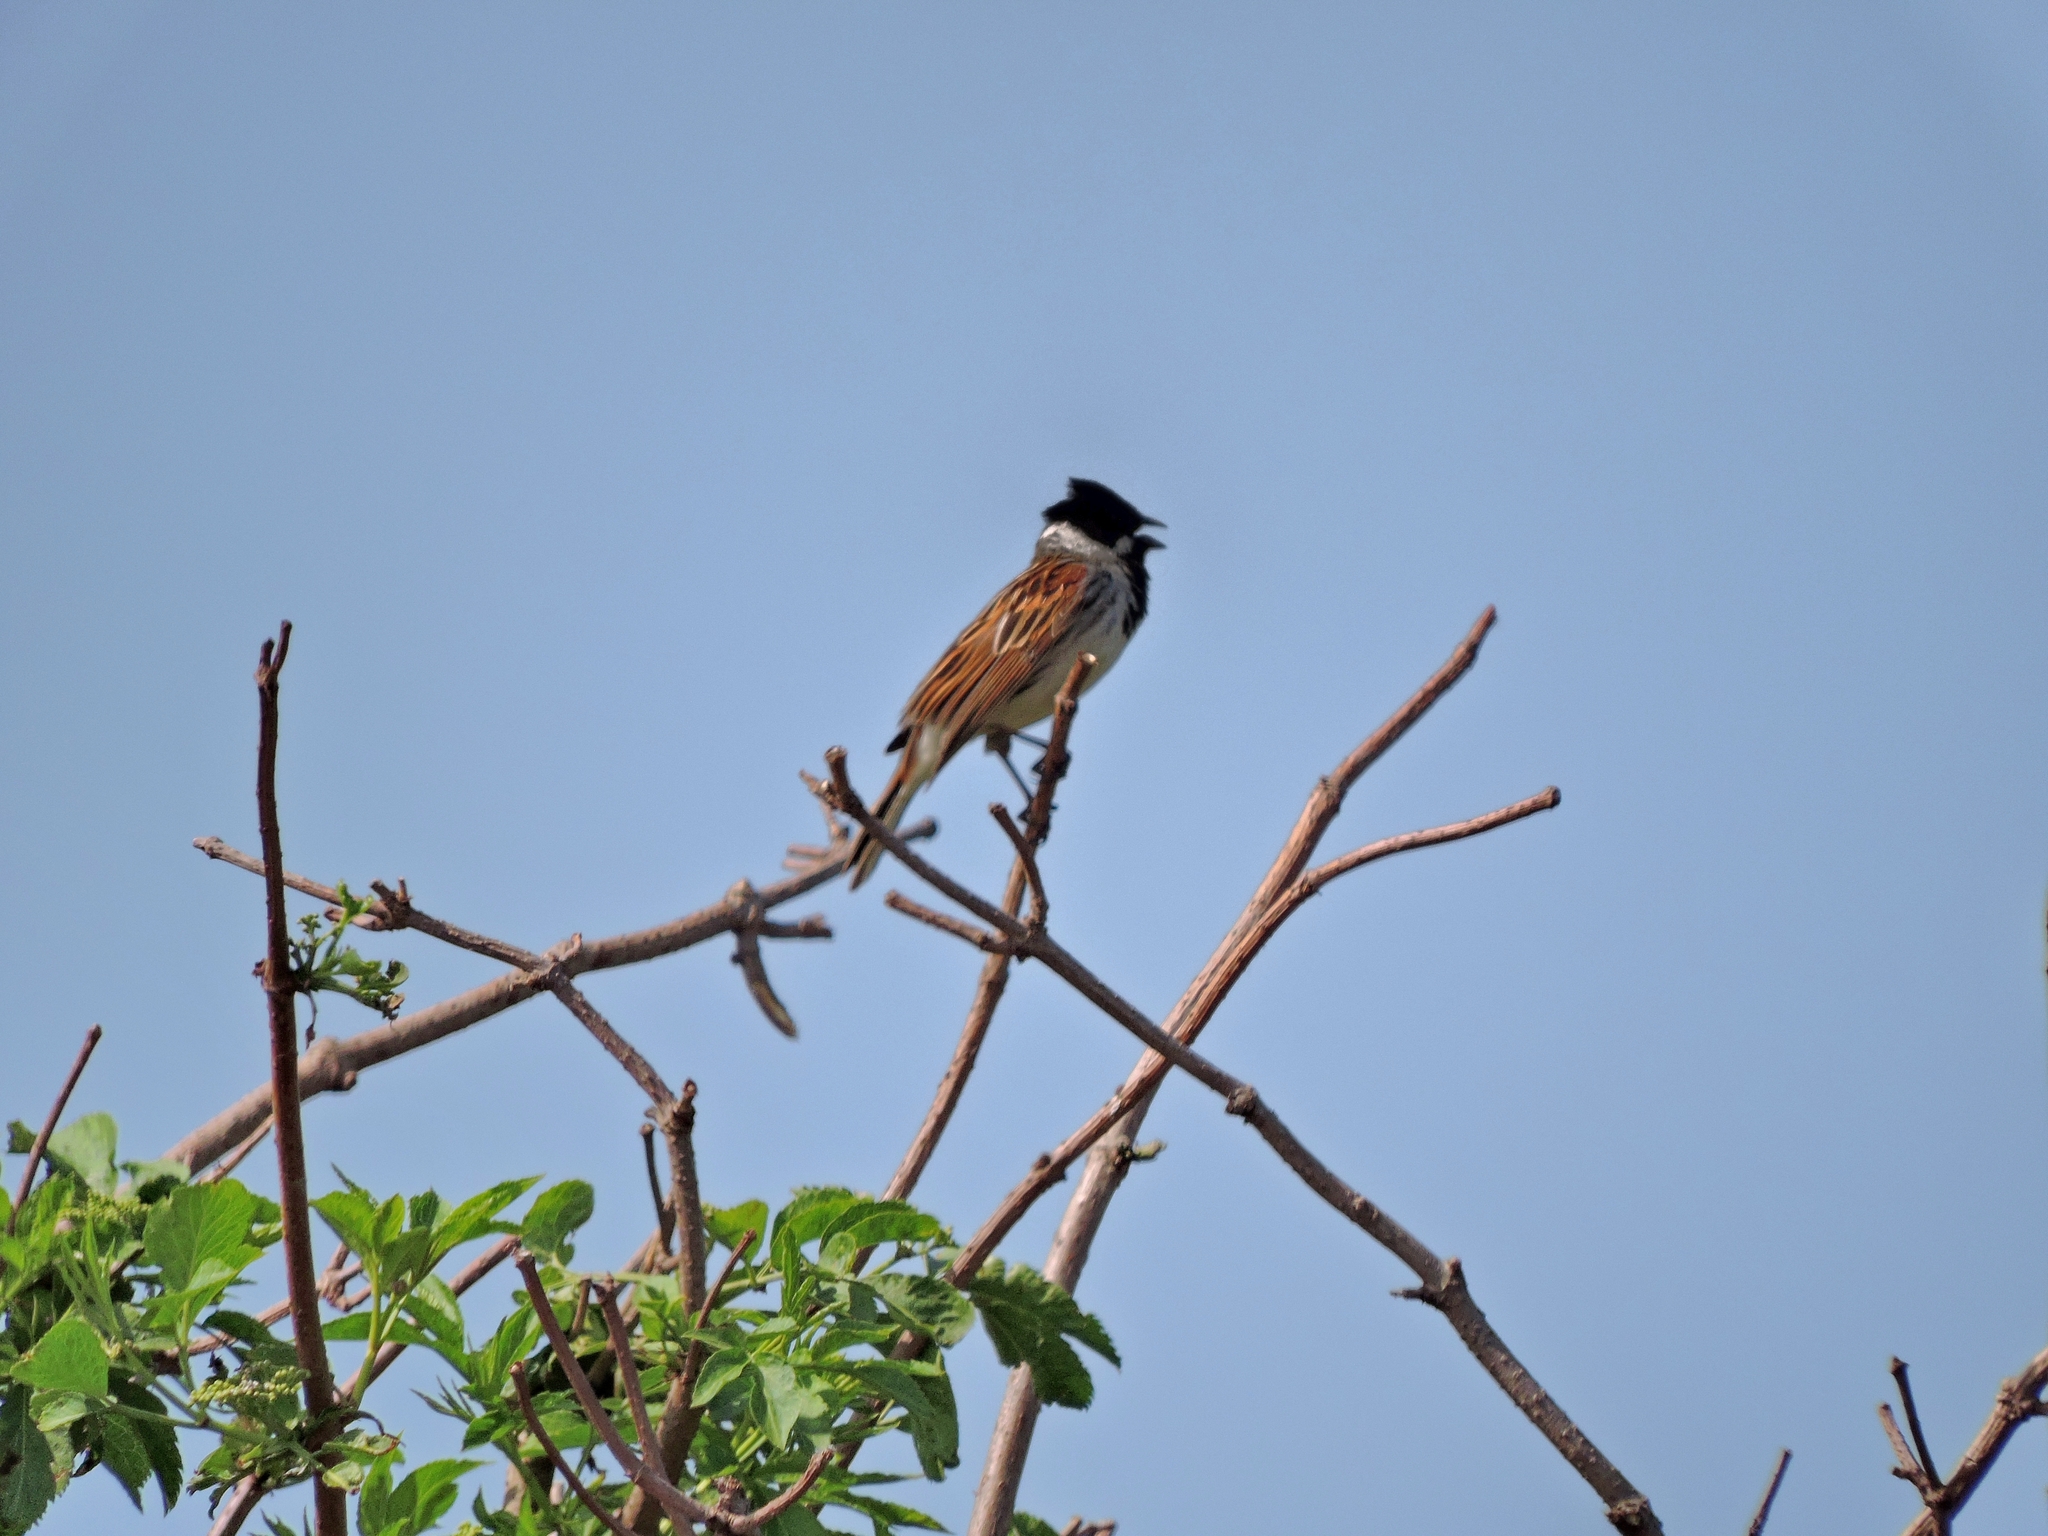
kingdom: Animalia
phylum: Chordata
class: Aves
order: Passeriformes
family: Emberizidae
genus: Emberiza
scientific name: Emberiza schoeniclus
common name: Reed bunting
